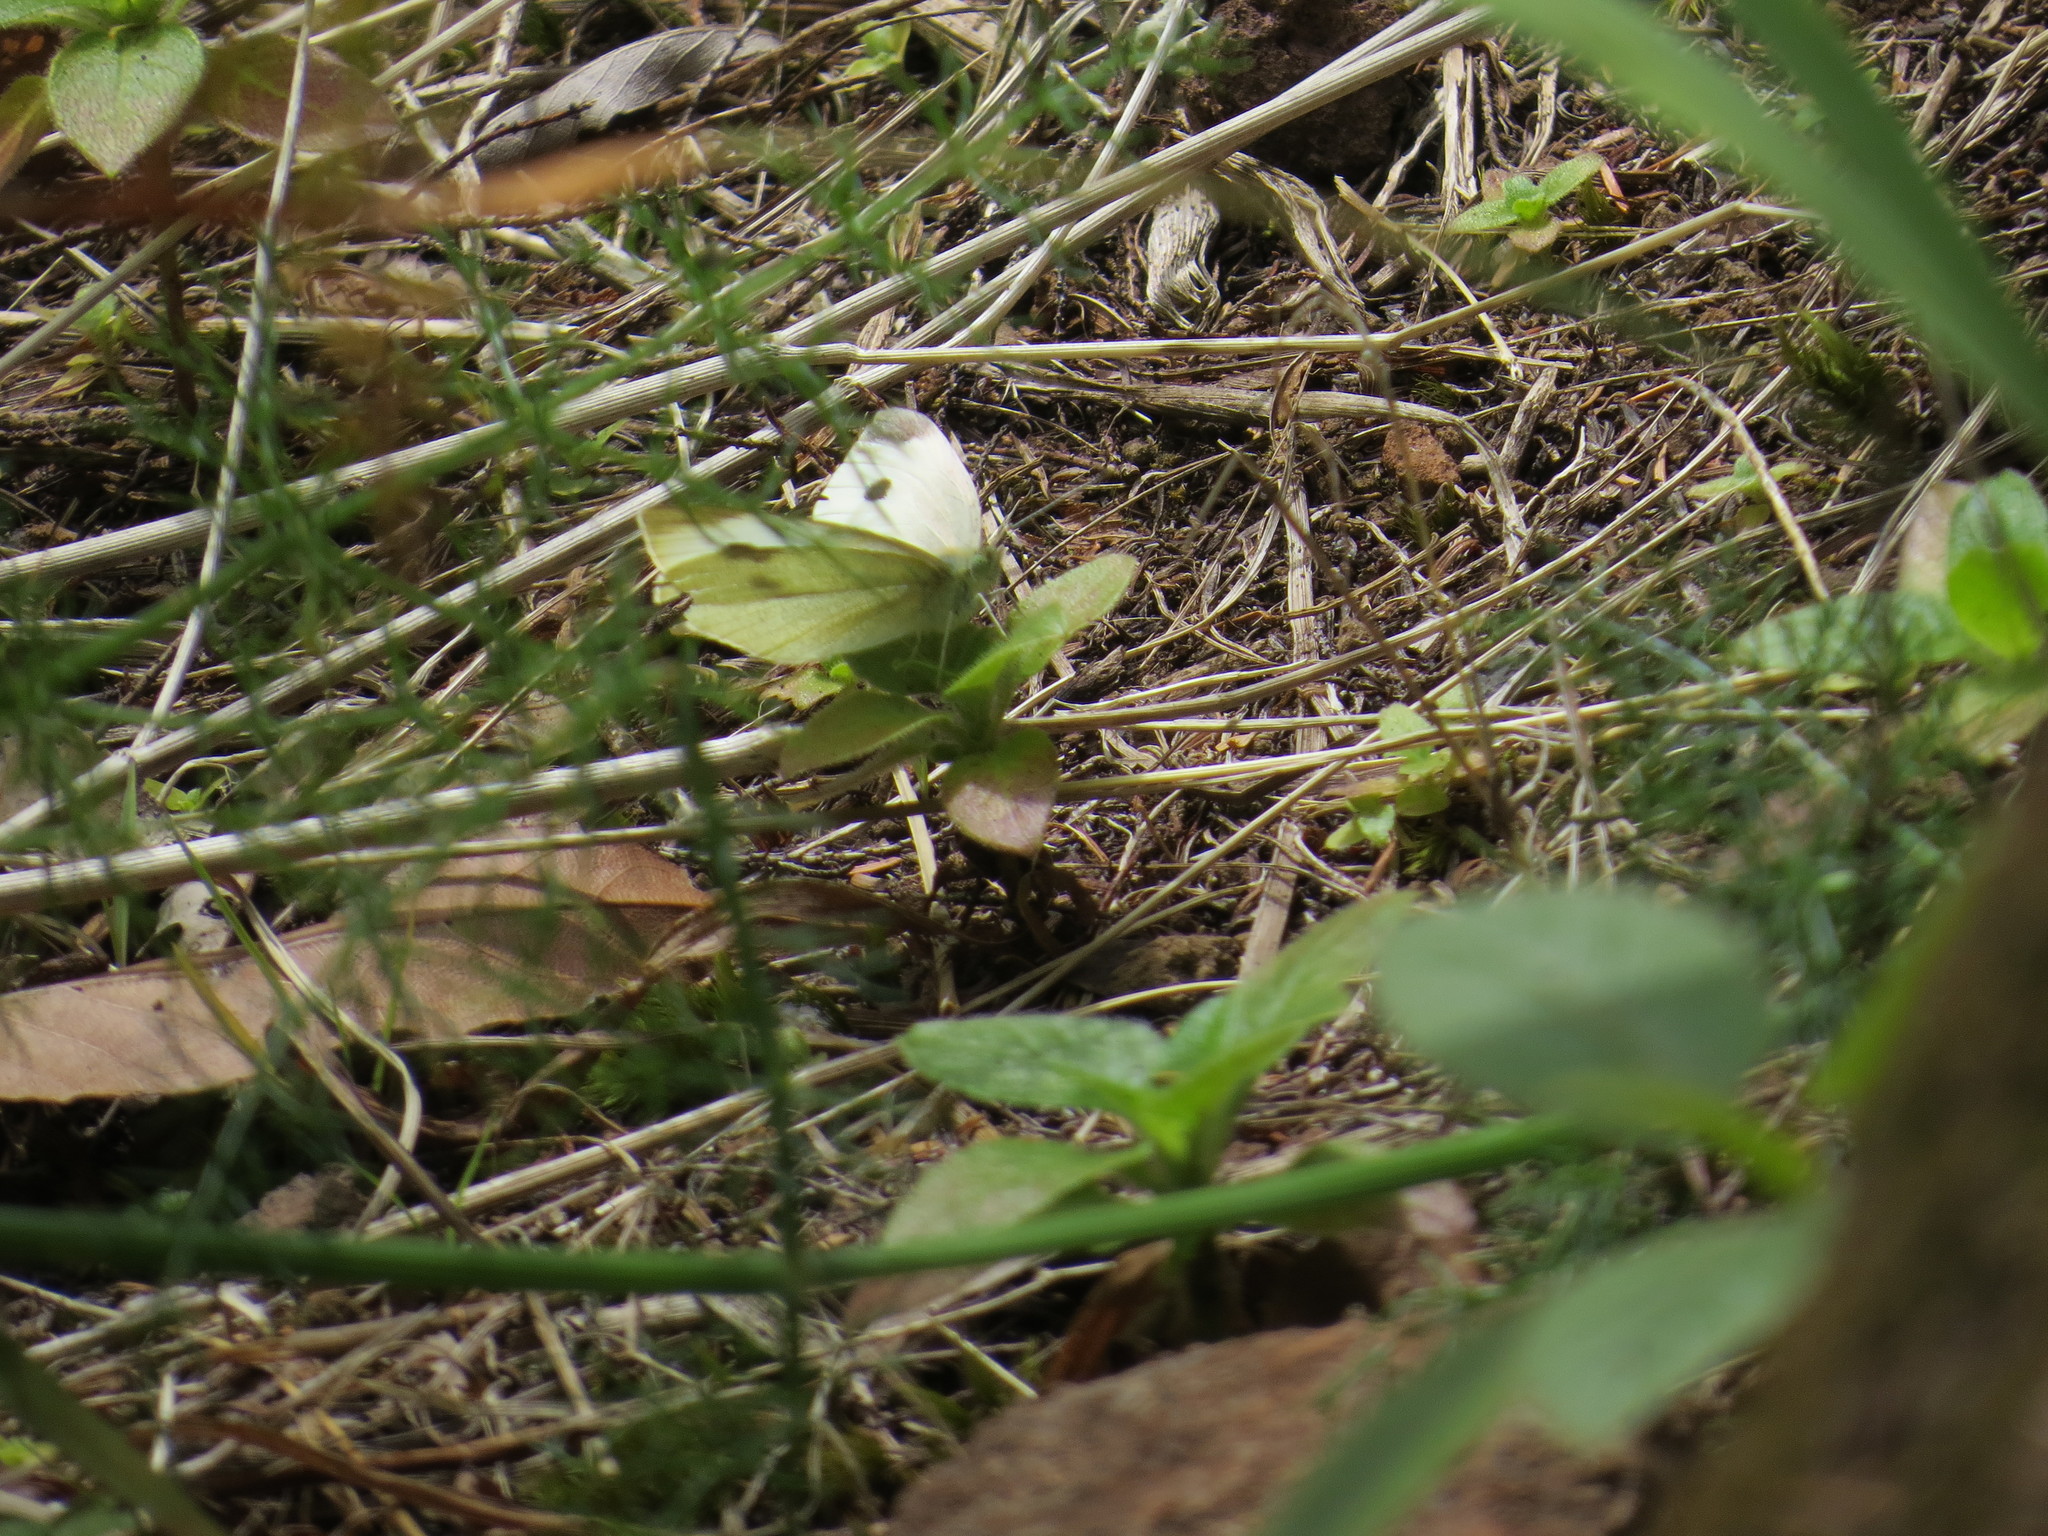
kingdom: Animalia
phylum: Arthropoda
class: Insecta
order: Lepidoptera
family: Pieridae
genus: Pieris
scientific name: Pieris rapae
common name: Small white
